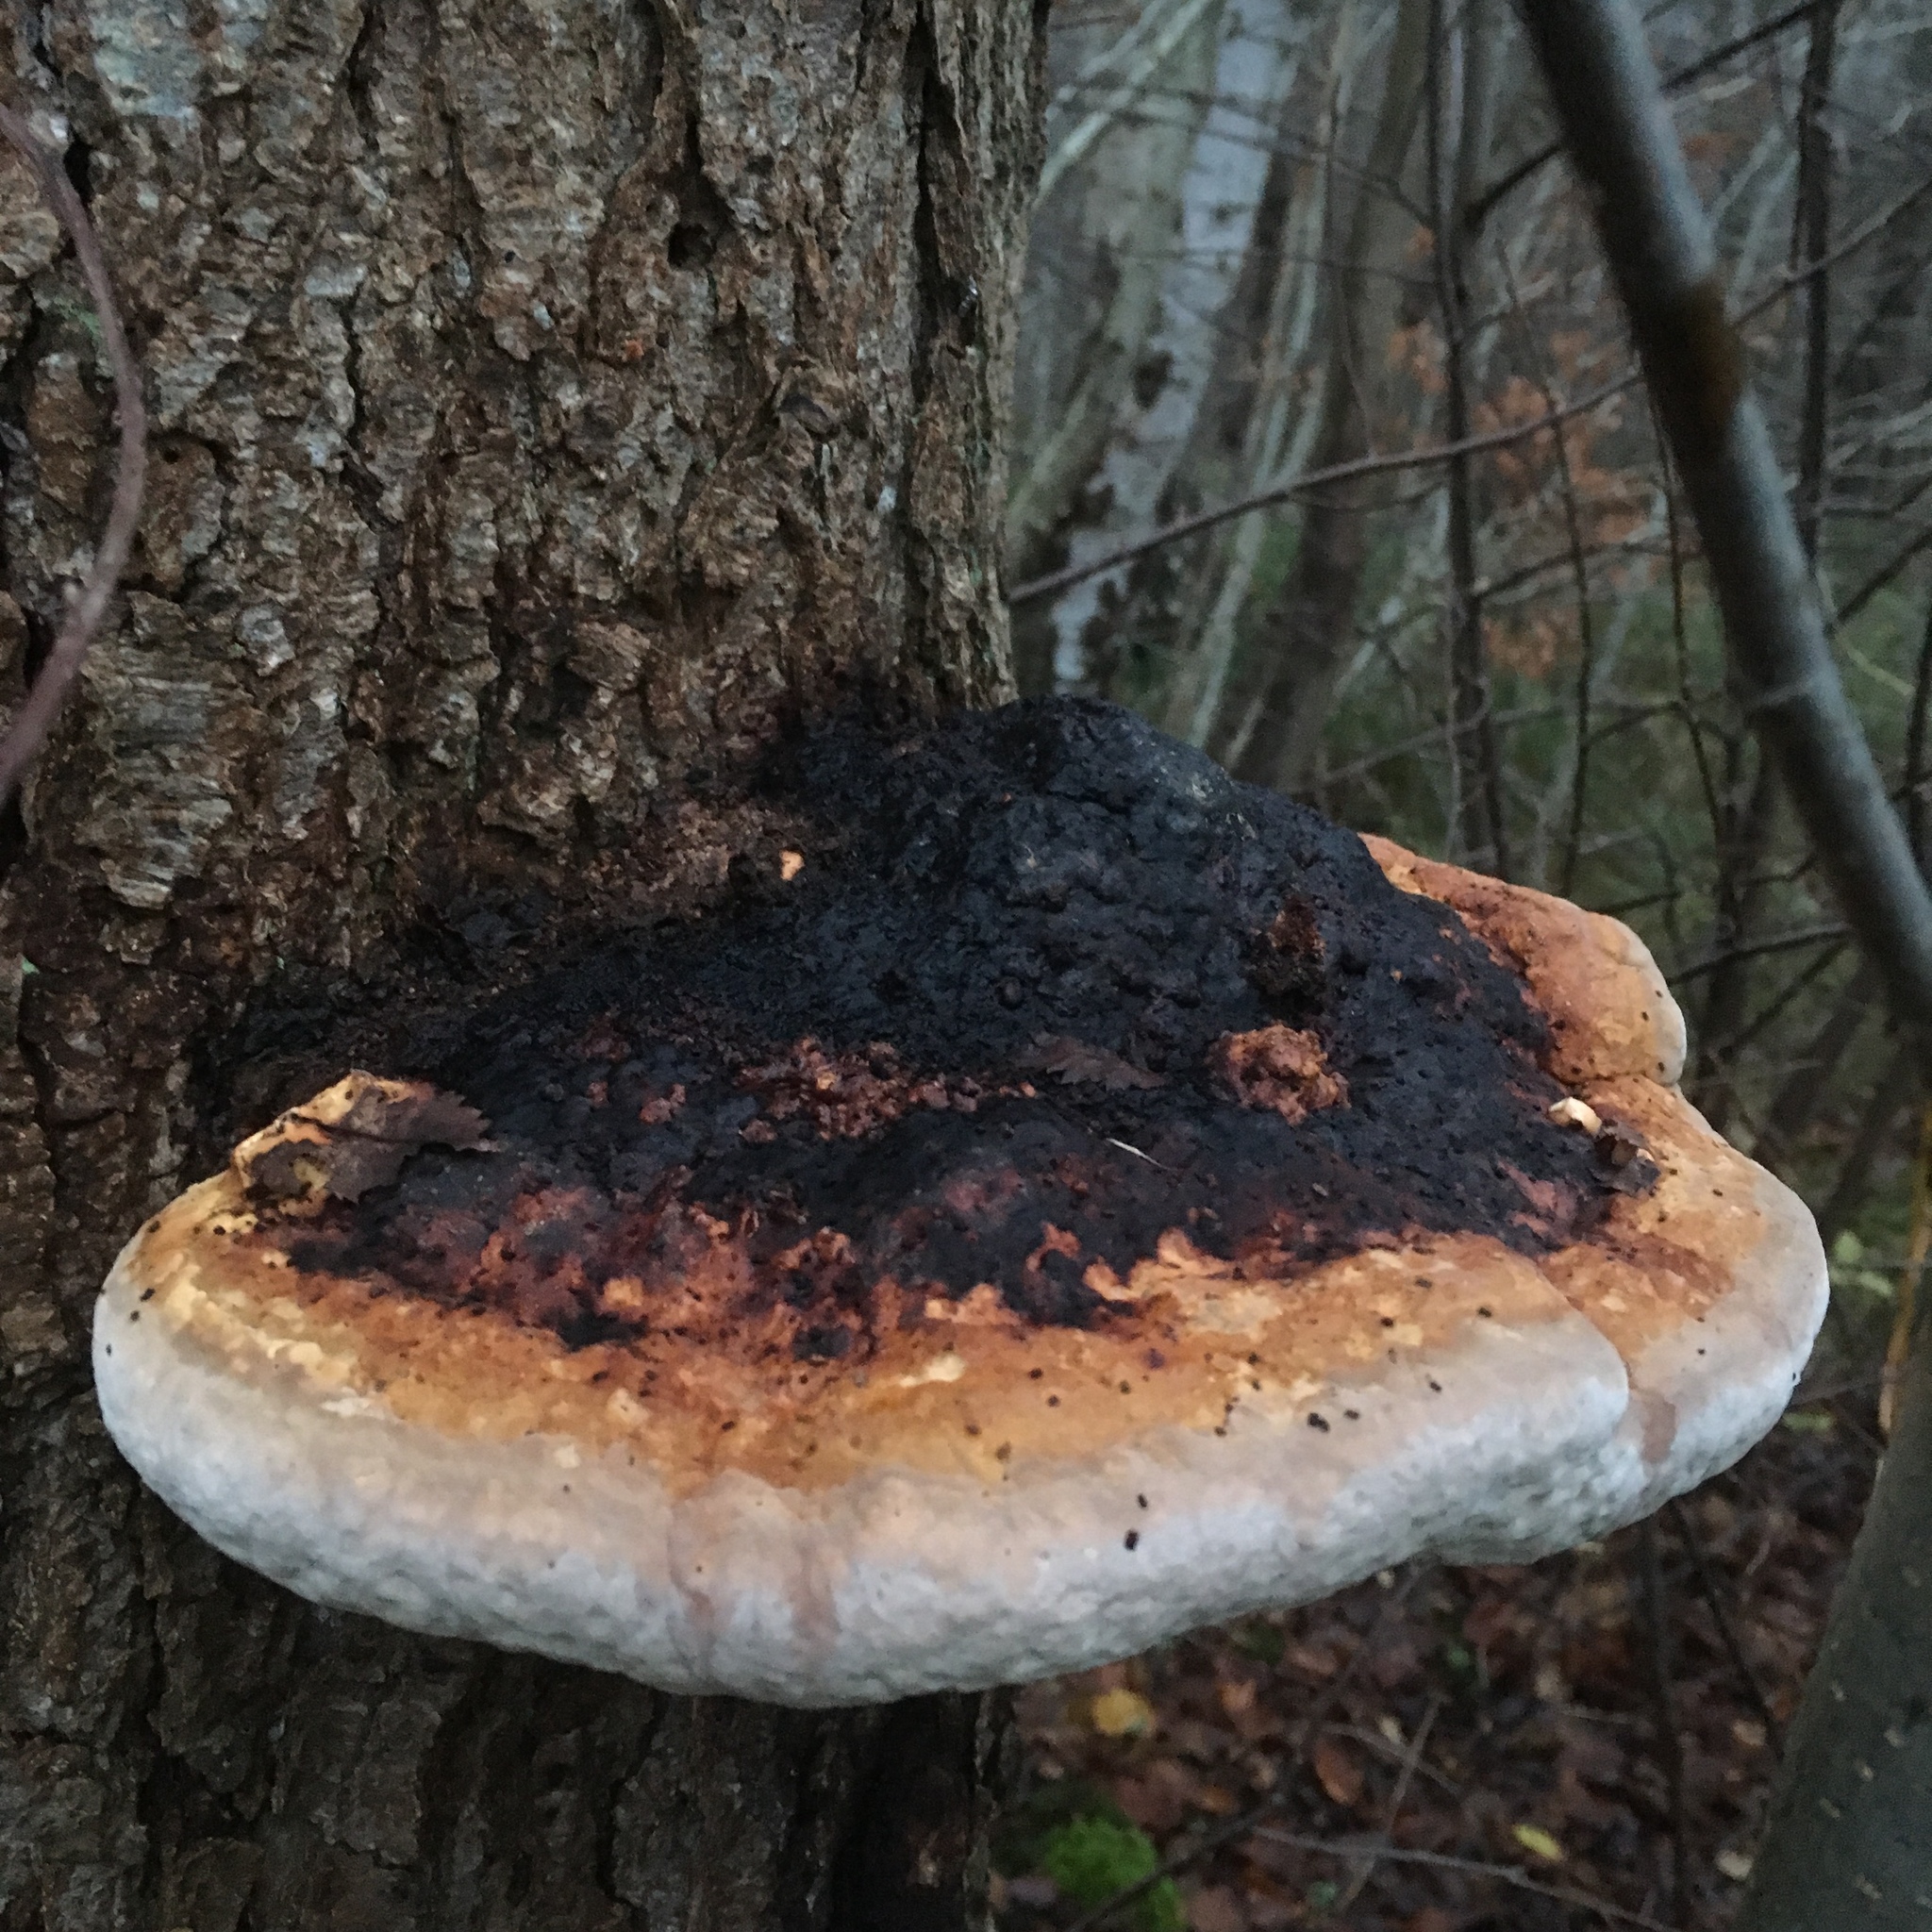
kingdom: Fungi
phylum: Basidiomycota
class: Agaricomycetes
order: Polyporales
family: Fomitopsidaceae
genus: Fomitopsis
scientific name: Fomitopsis pinicola
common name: Red-belted bracket
